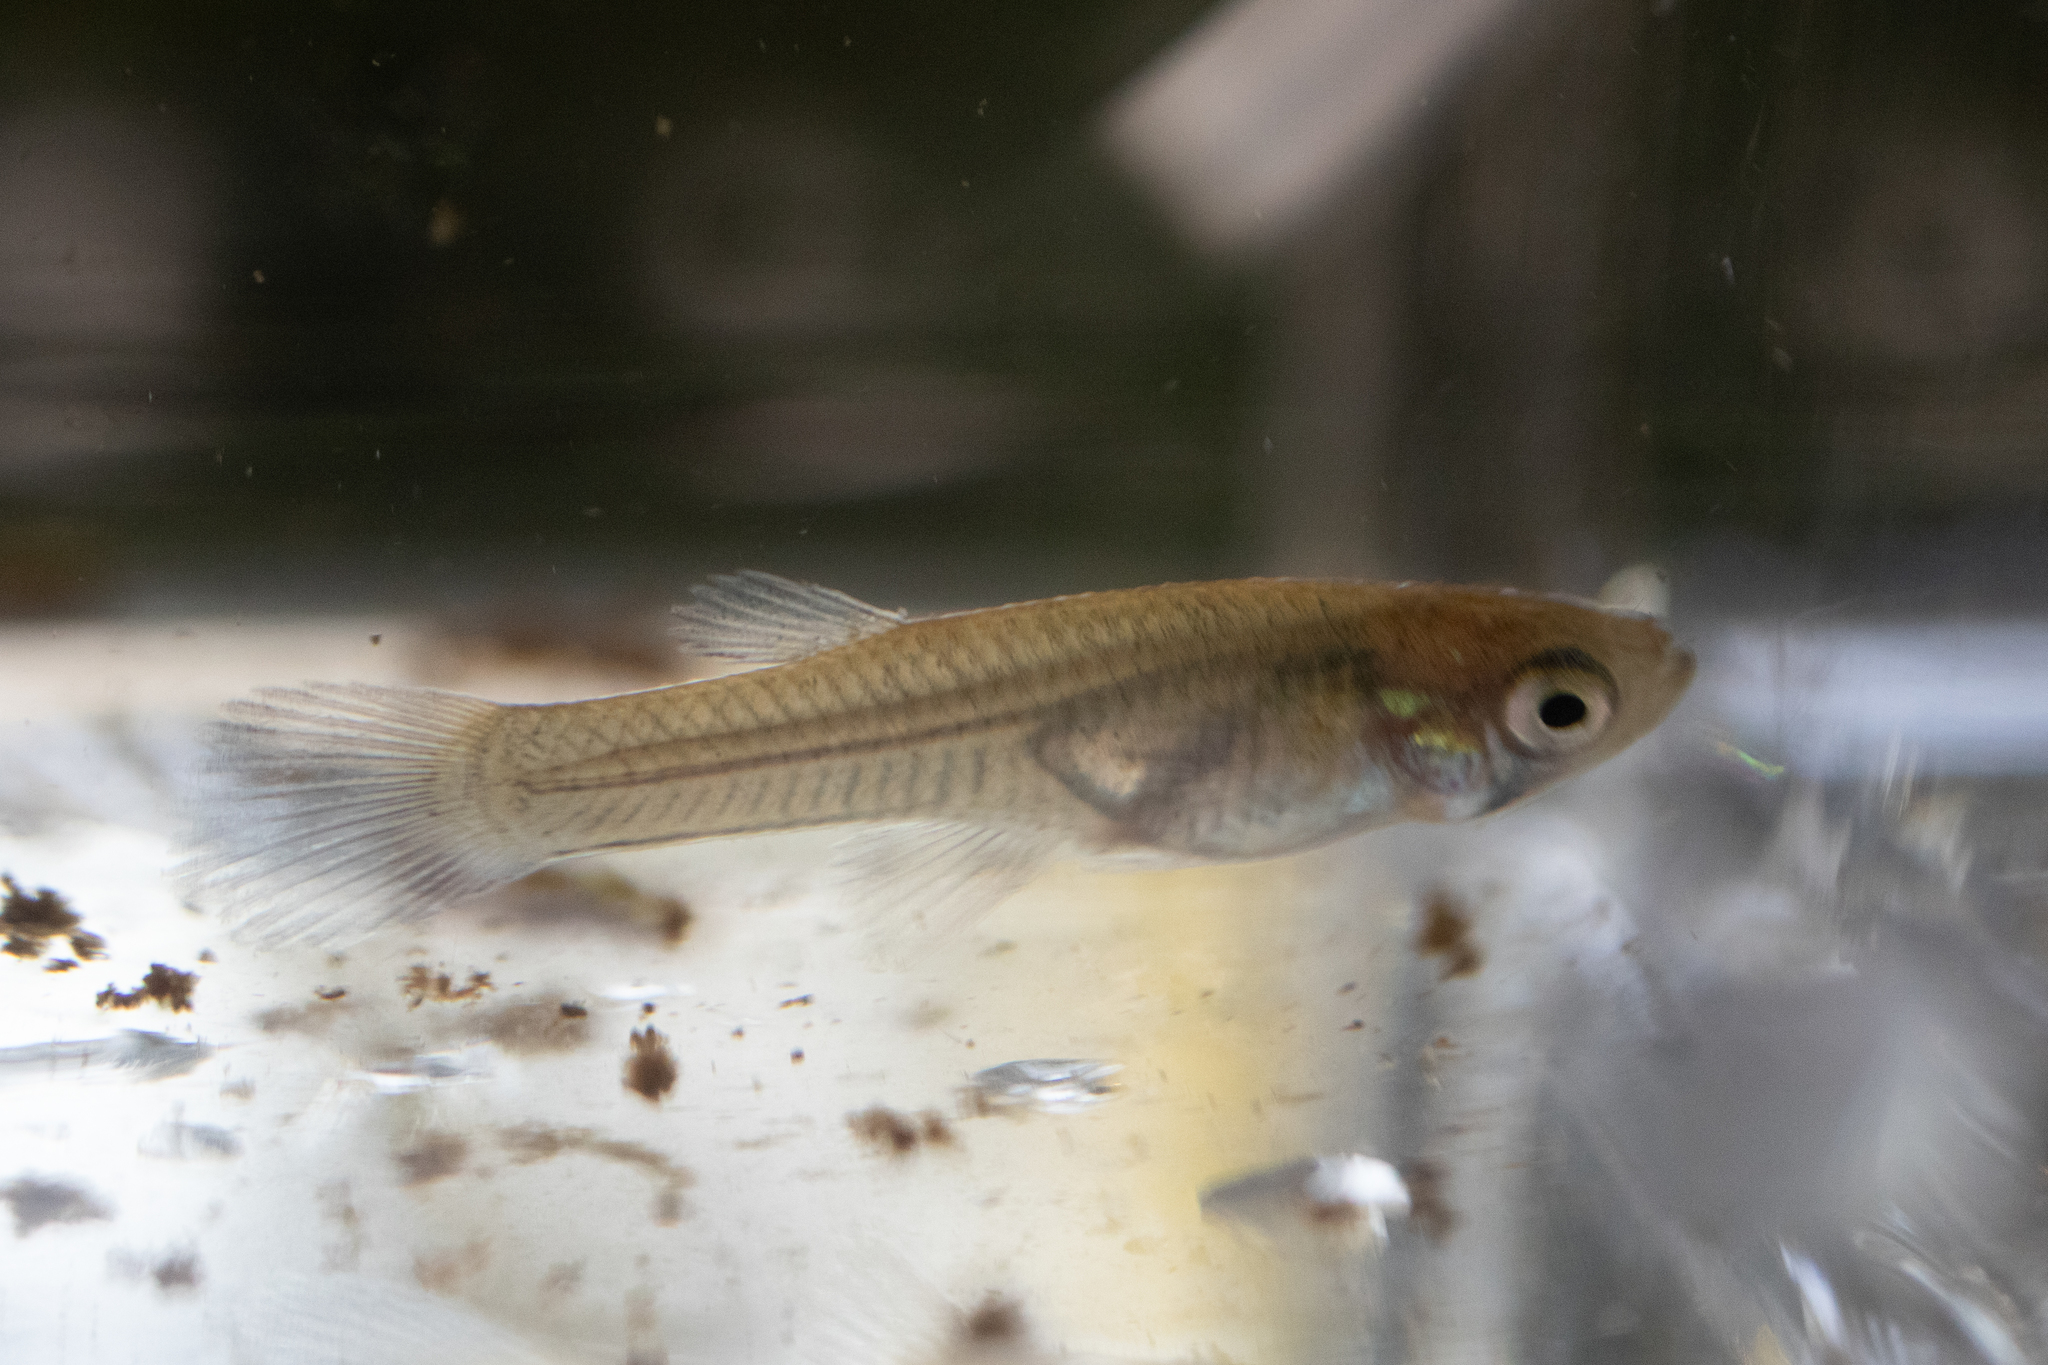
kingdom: Animalia
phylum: Chordata
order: Cyprinodontiformes
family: Poeciliidae
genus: Gambusia
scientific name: Gambusia holbrooki
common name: Eastern mosquitofish
